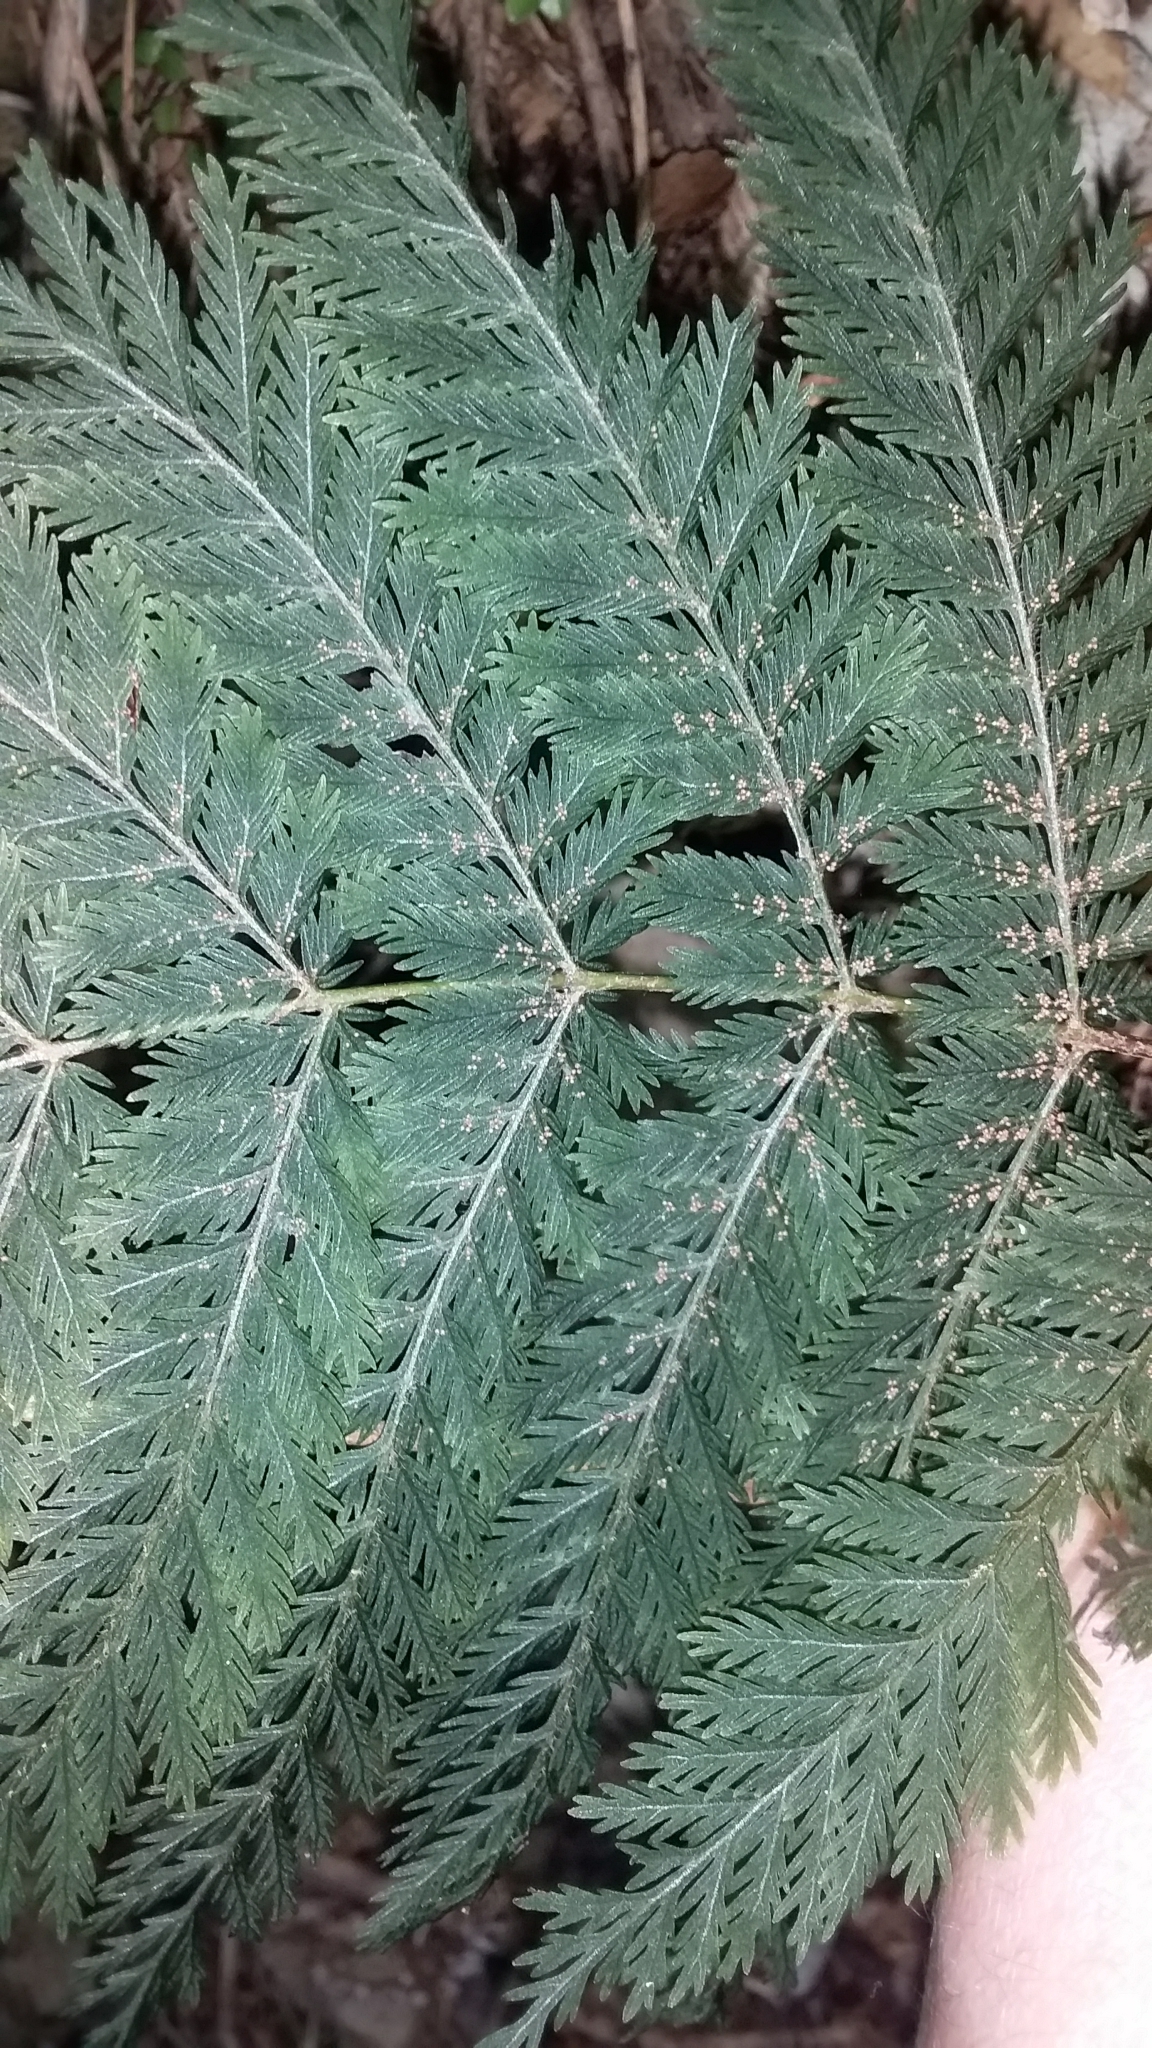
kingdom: Plantae
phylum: Tracheophyta
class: Polypodiopsida
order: Osmundales
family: Osmundaceae
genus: Leptopteris
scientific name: Leptopteris hymenophylloides
